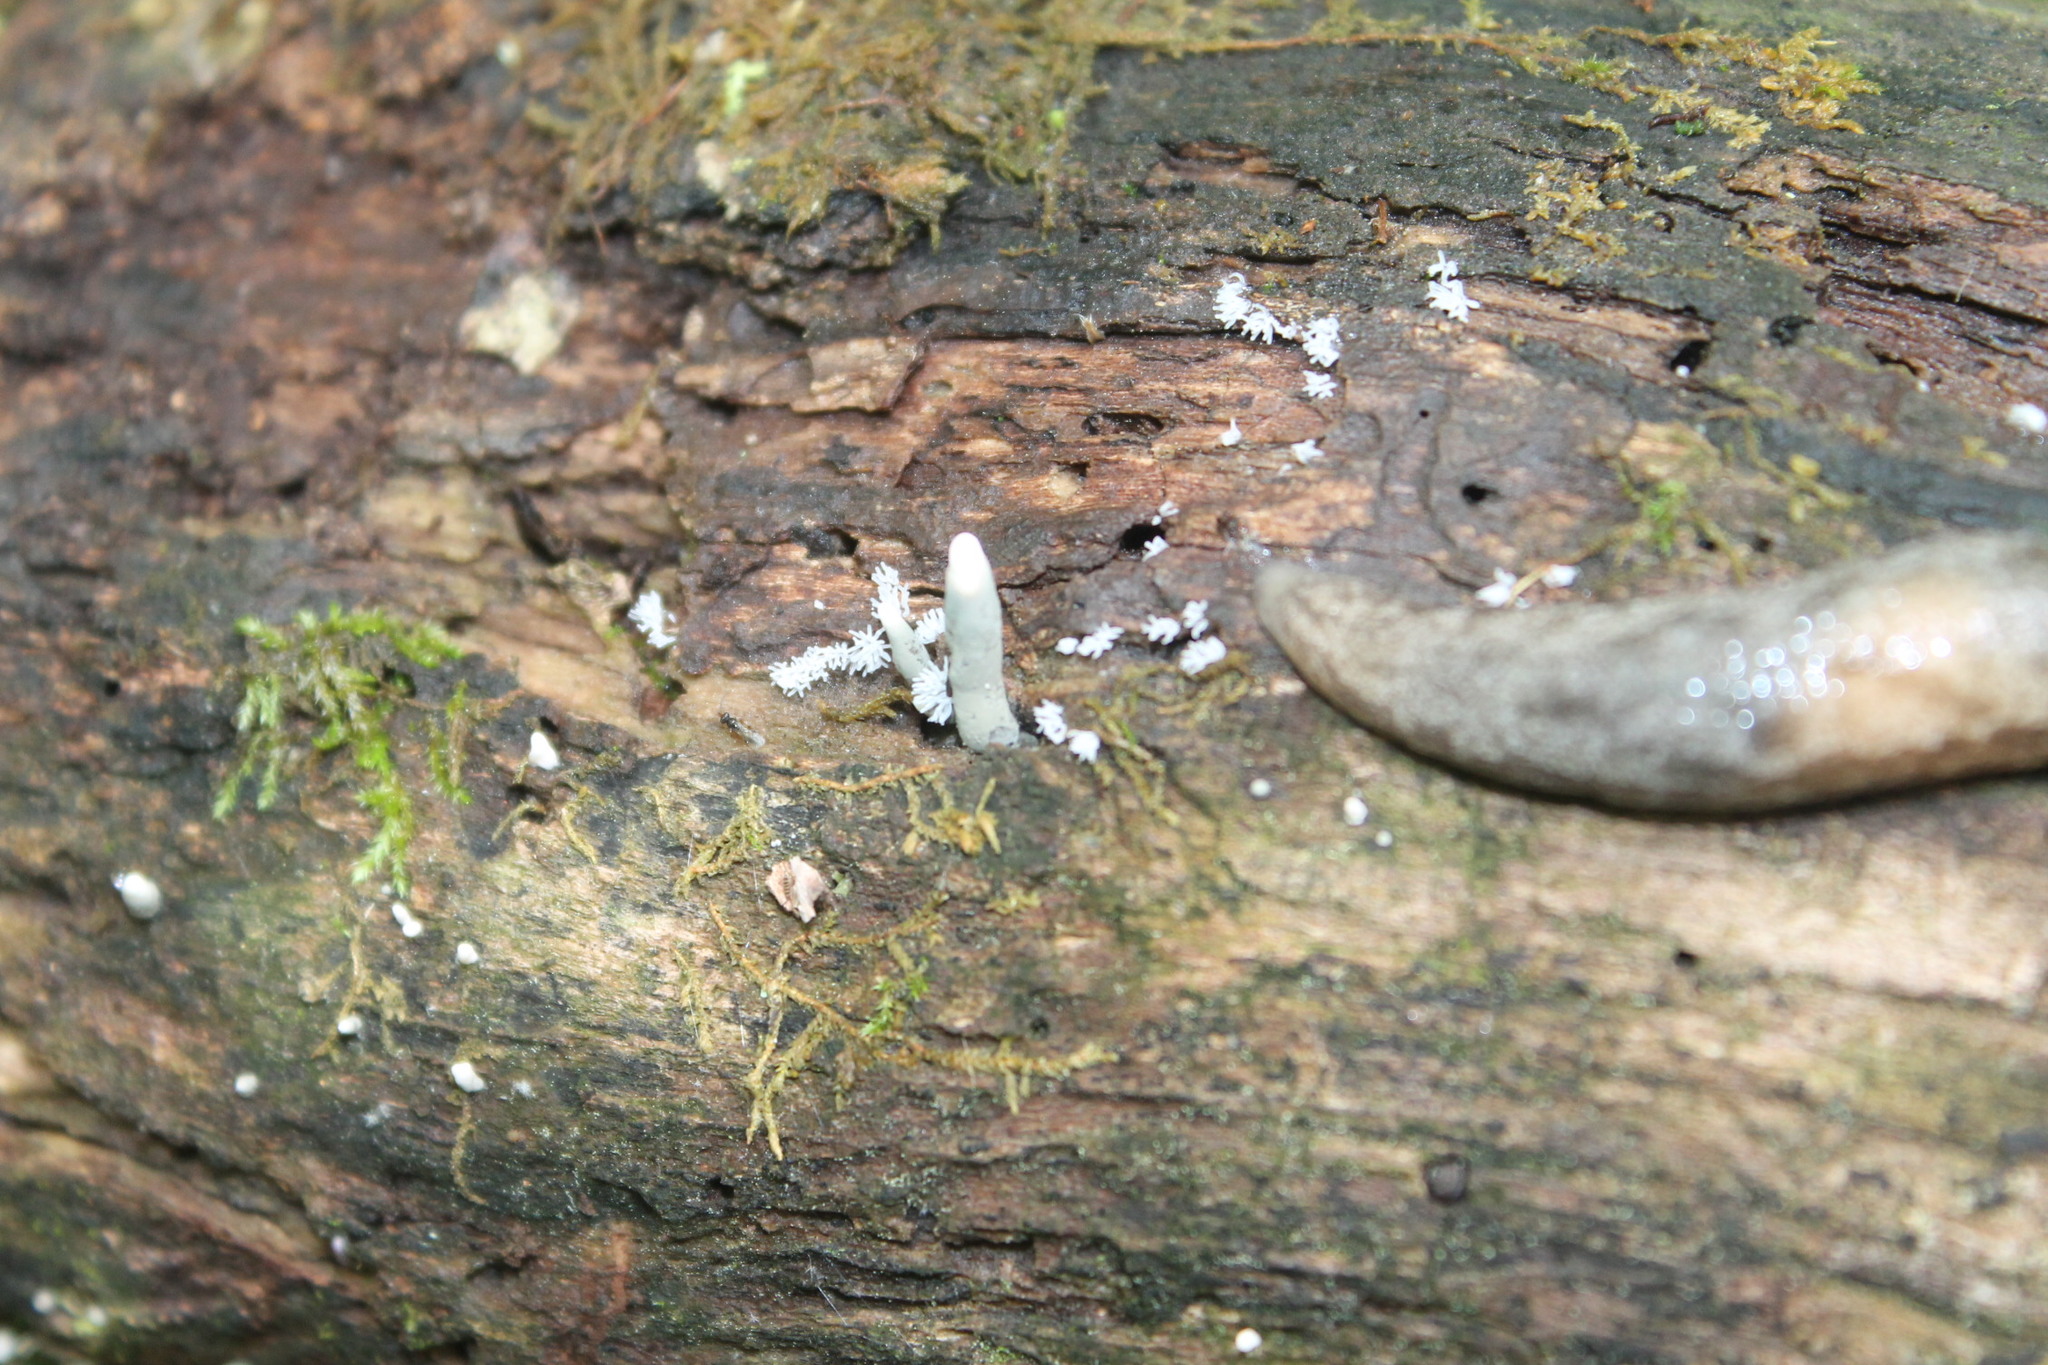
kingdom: Fungi
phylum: Ascomycota
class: Sordariomycetes
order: Xylariales
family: Xylariaceae
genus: Xylaria
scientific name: Xylaria polymorpha
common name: Dead man's fingers
